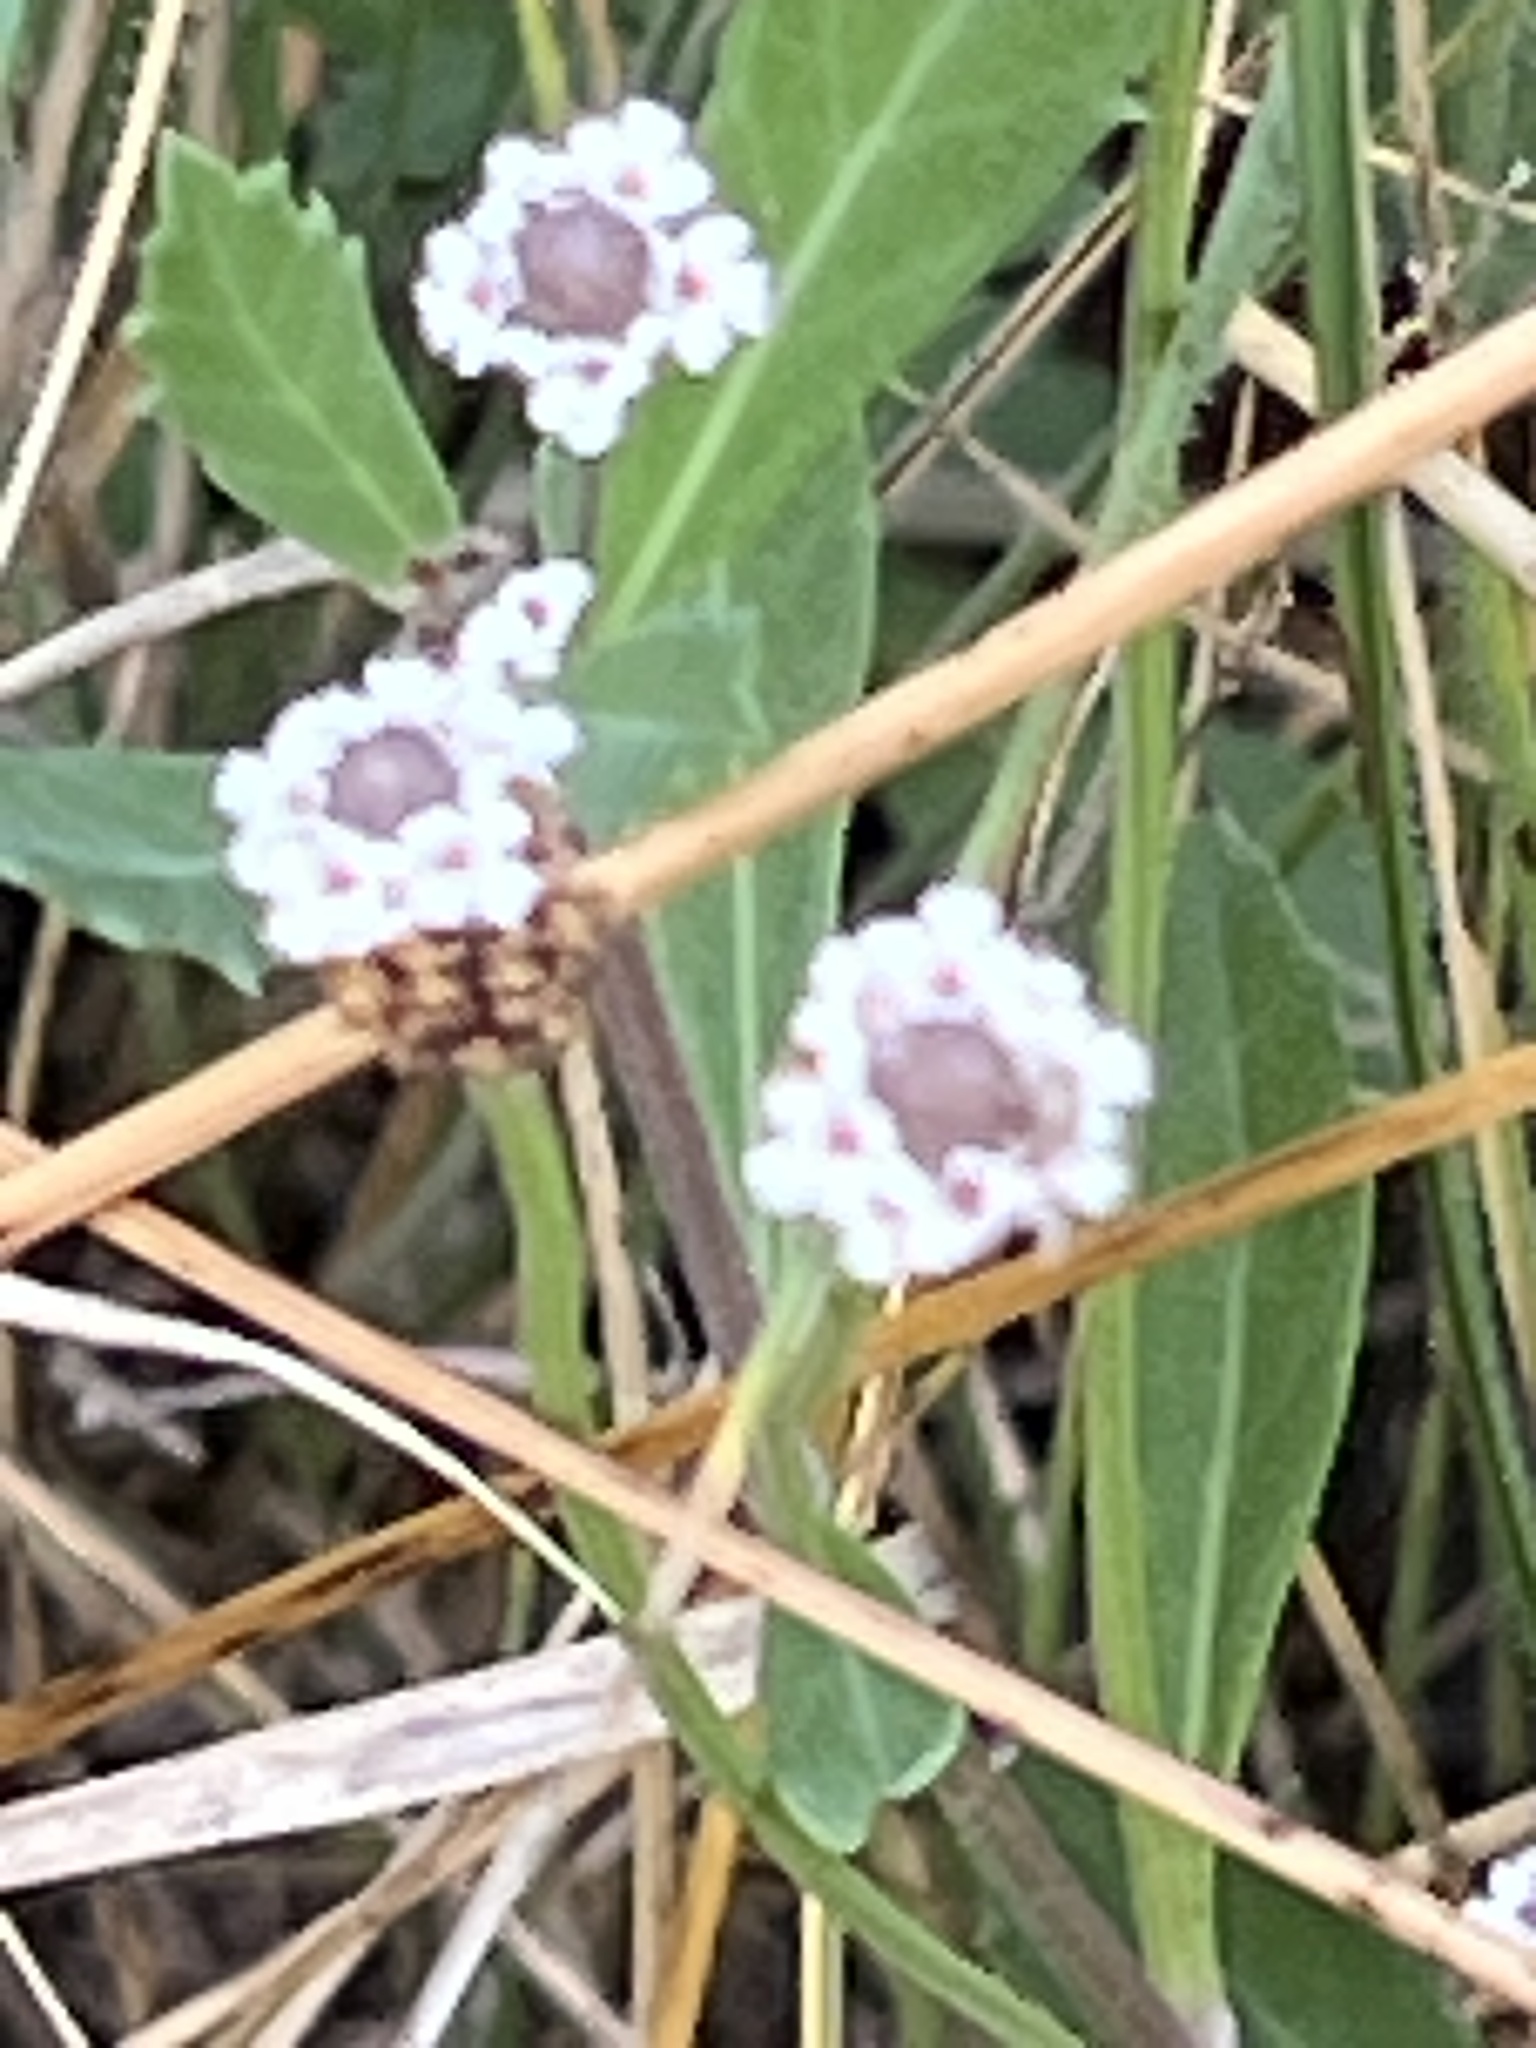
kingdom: Plantae
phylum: Tracheophyta
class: Magnoliopsida
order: Lamiales
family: Verbenaceae
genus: Phyla
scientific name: Phyla nodiflora
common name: Frogfruit
